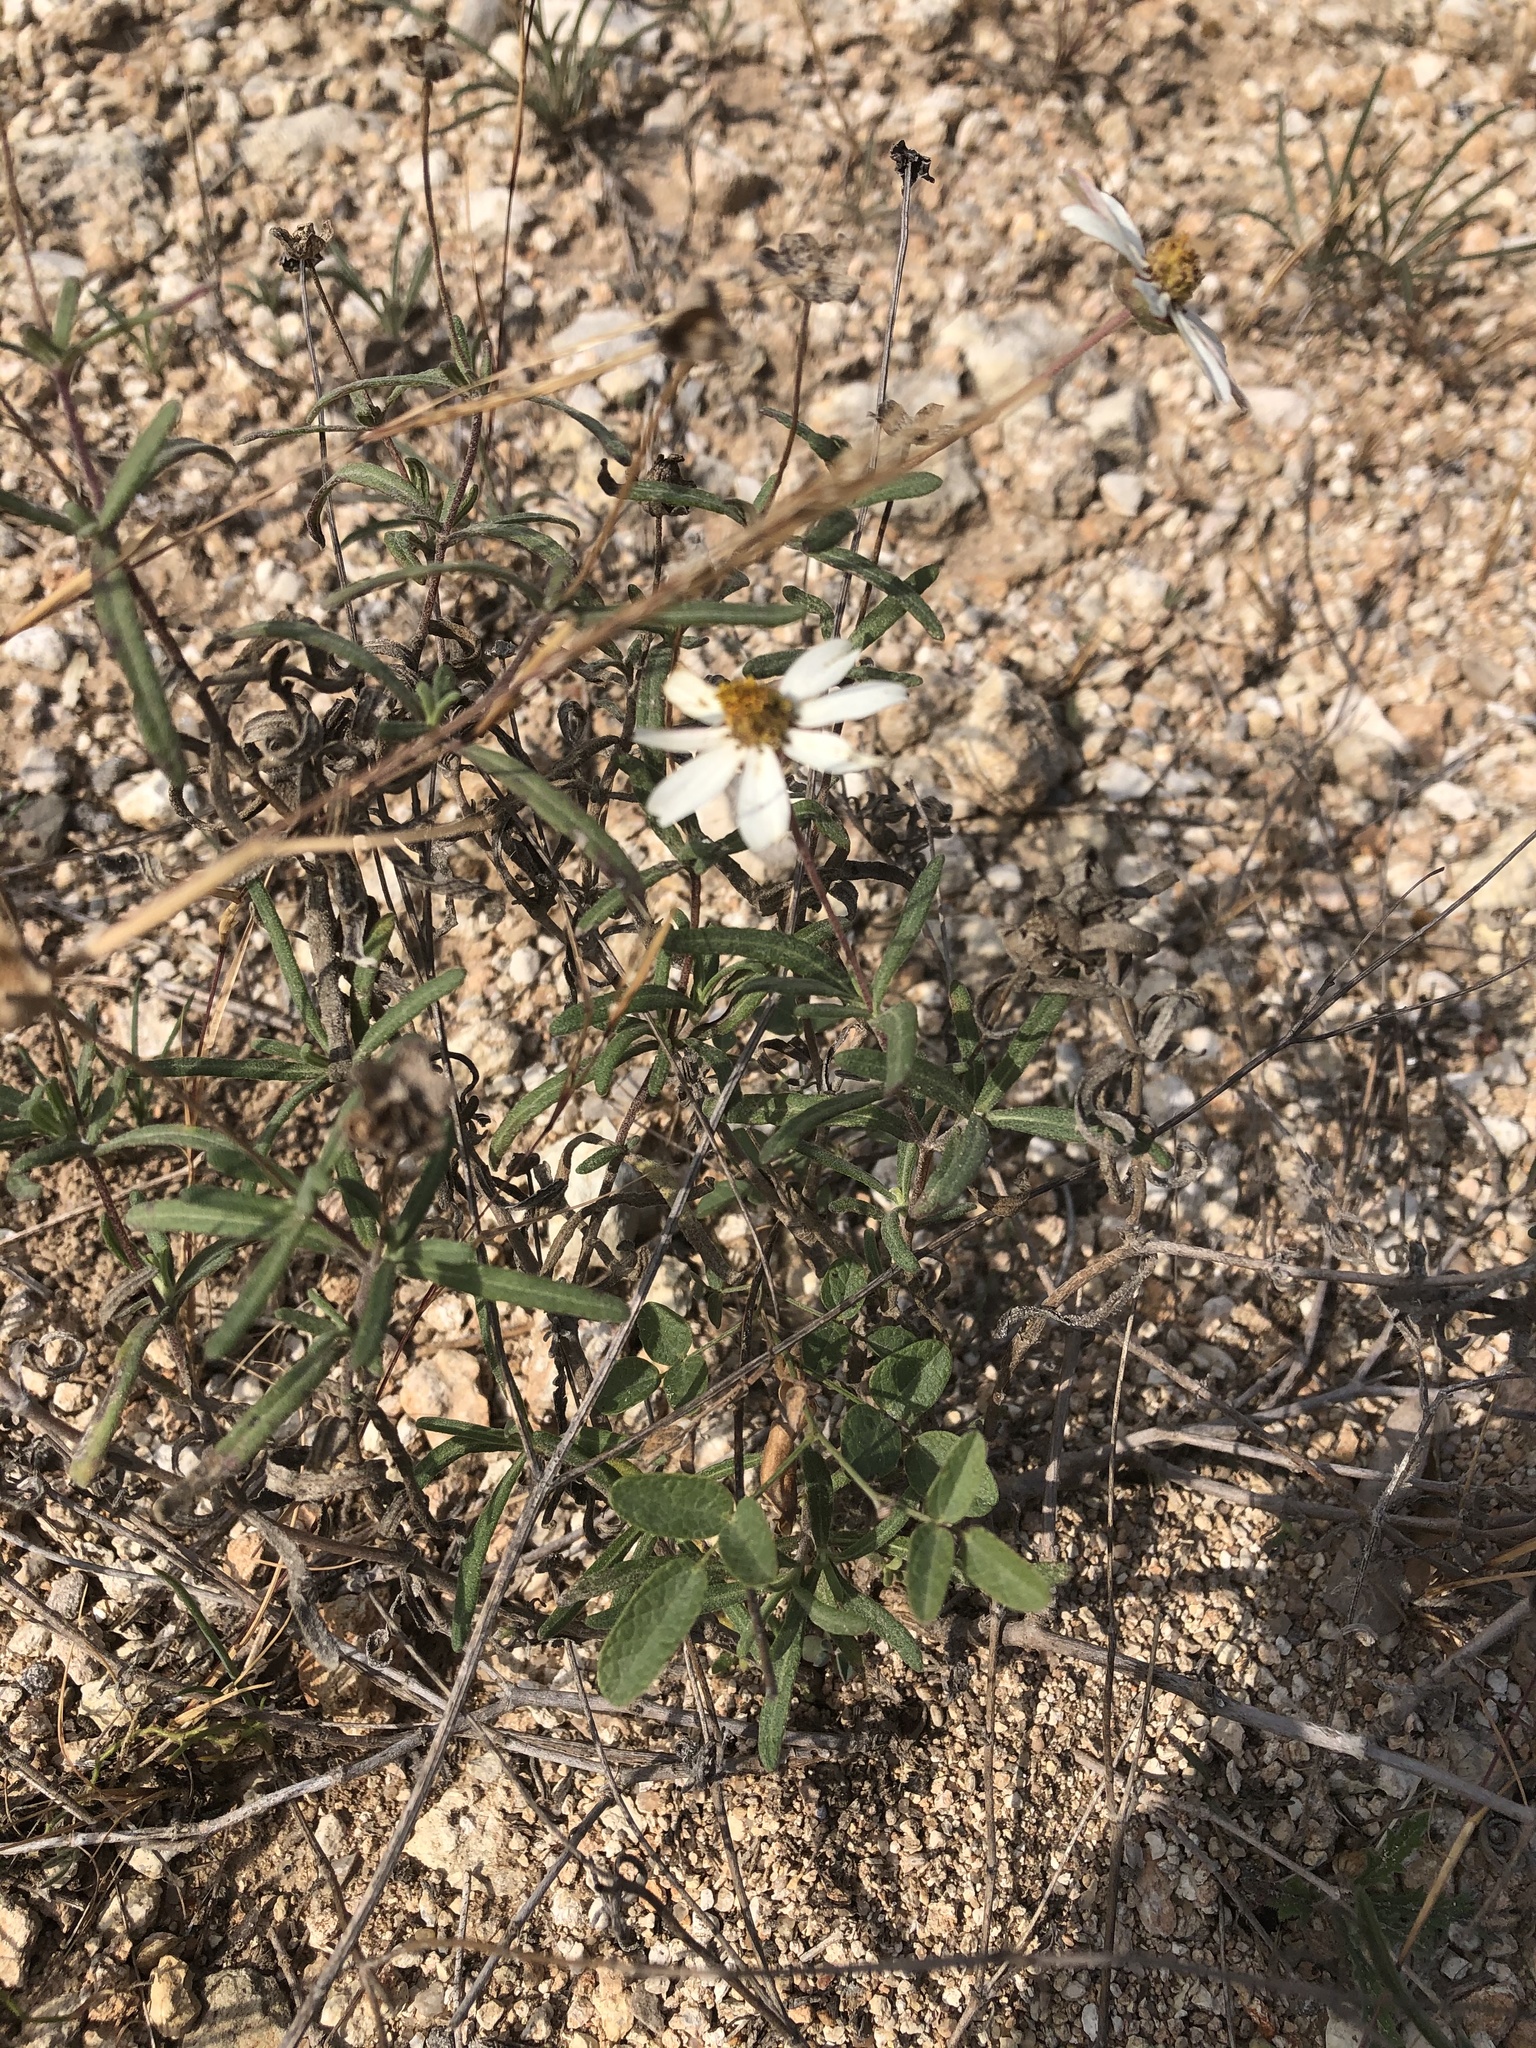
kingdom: Plantae
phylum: Tracheophyta
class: Magnoliopsida
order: Asterales
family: Asteraceae
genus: Melampodium
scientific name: Melampodium leucanthum
